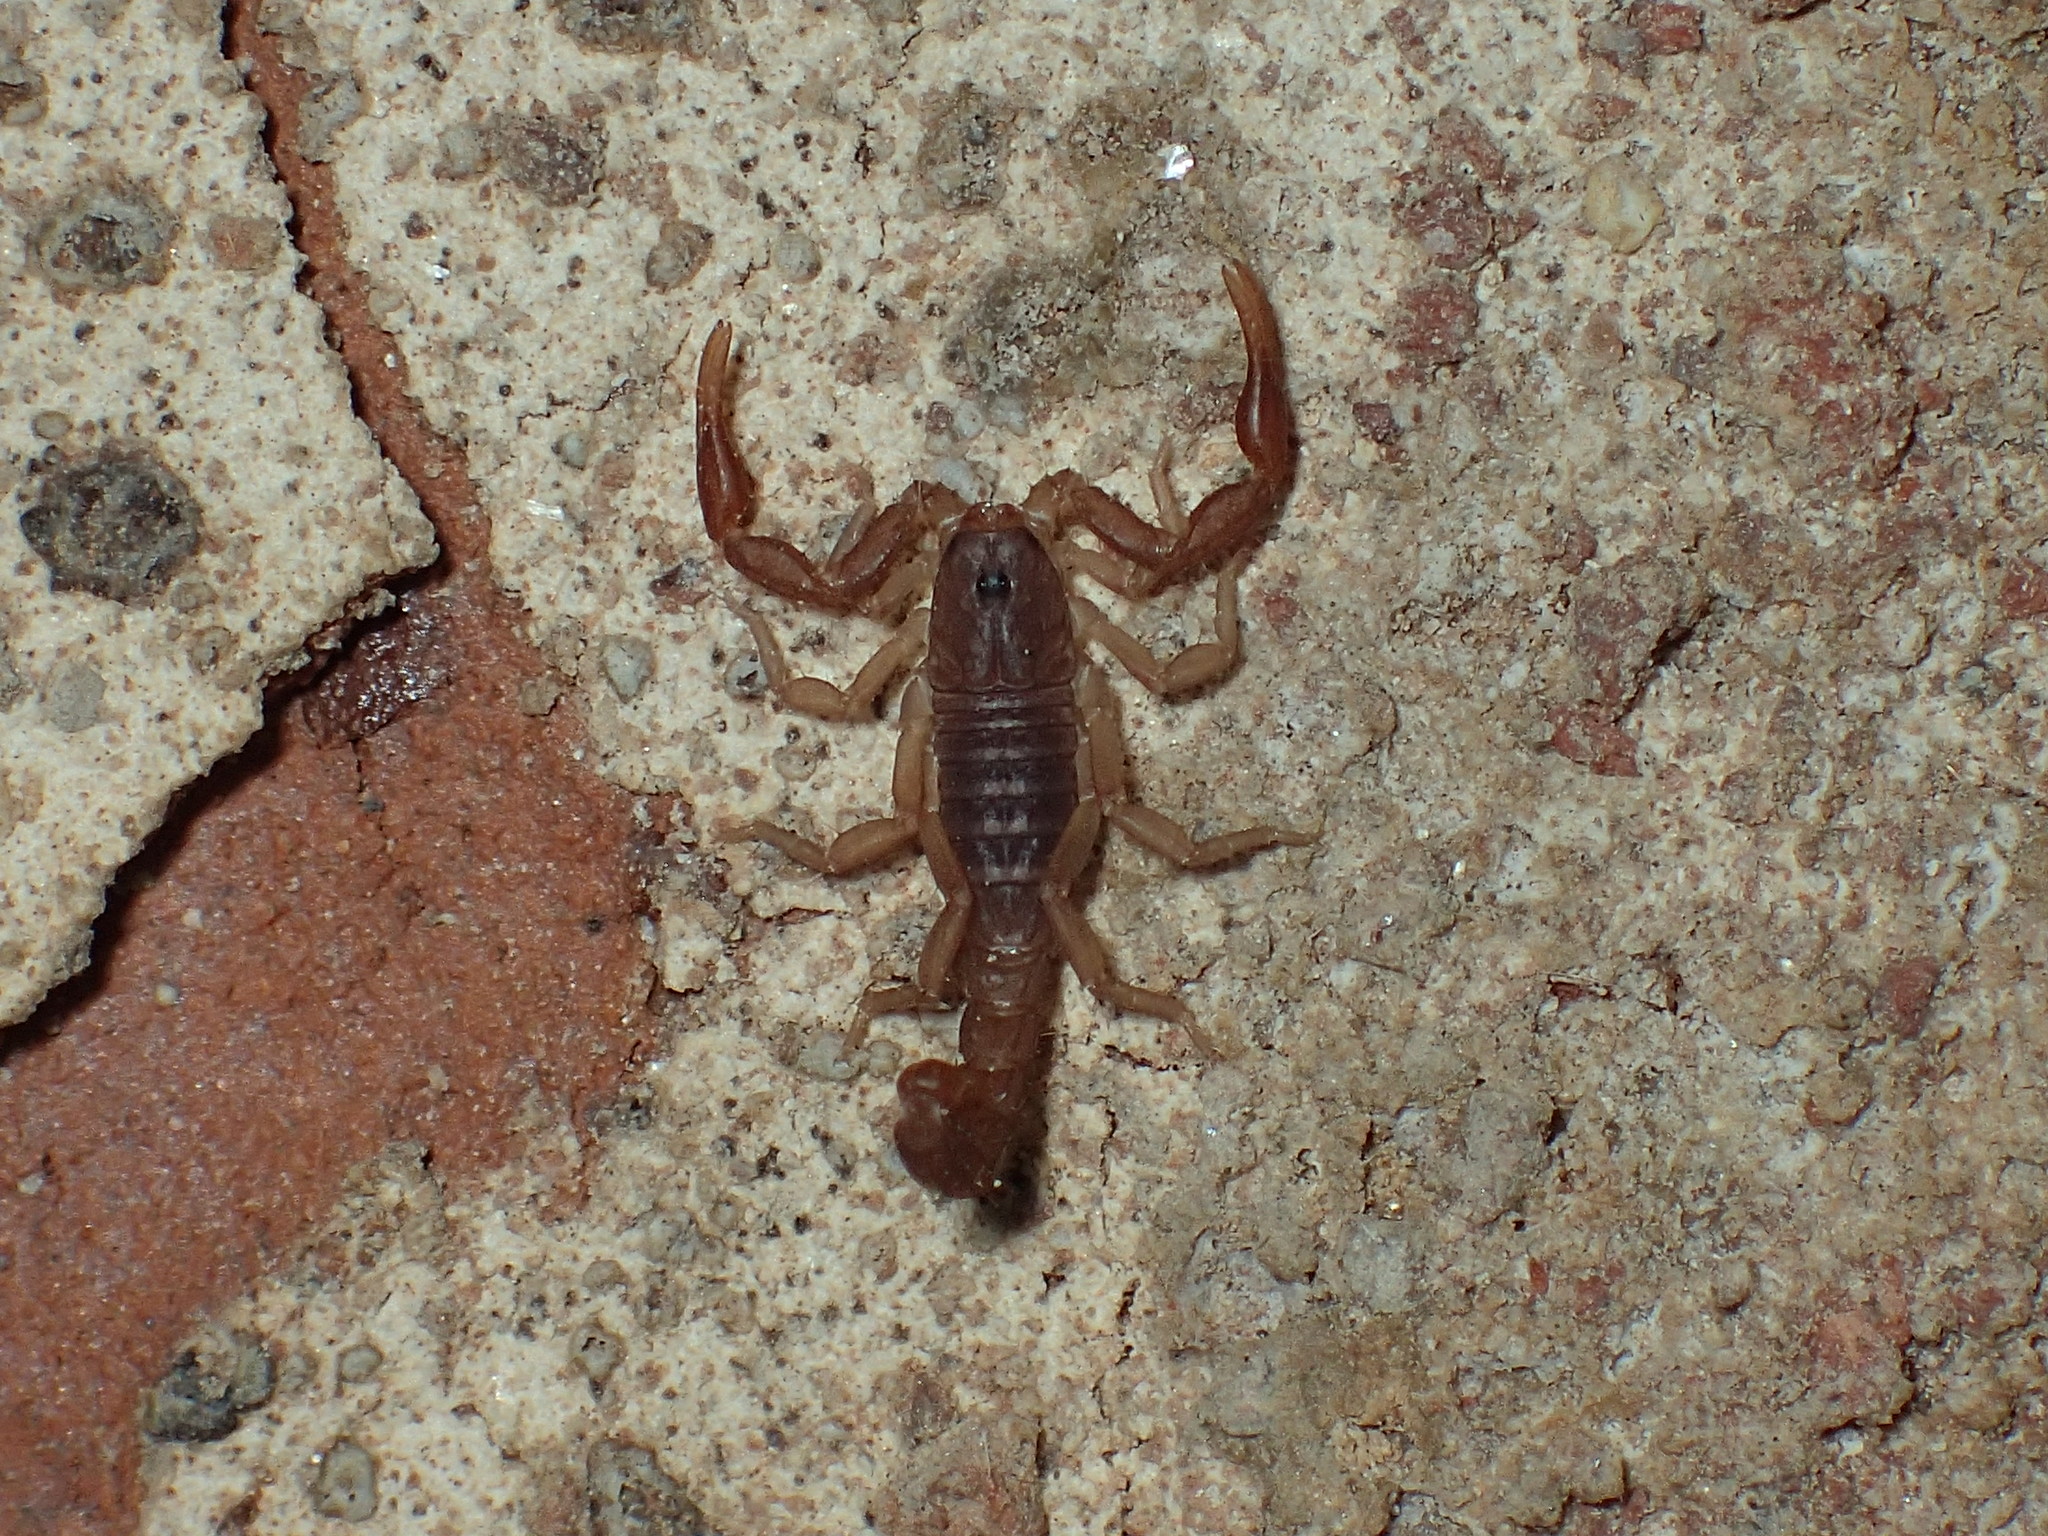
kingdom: Animalia
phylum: Arthropoda
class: Arachnida
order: Scorpiones
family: Vaejovidae
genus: Vaejovis
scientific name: Vaejovis carolinianus
